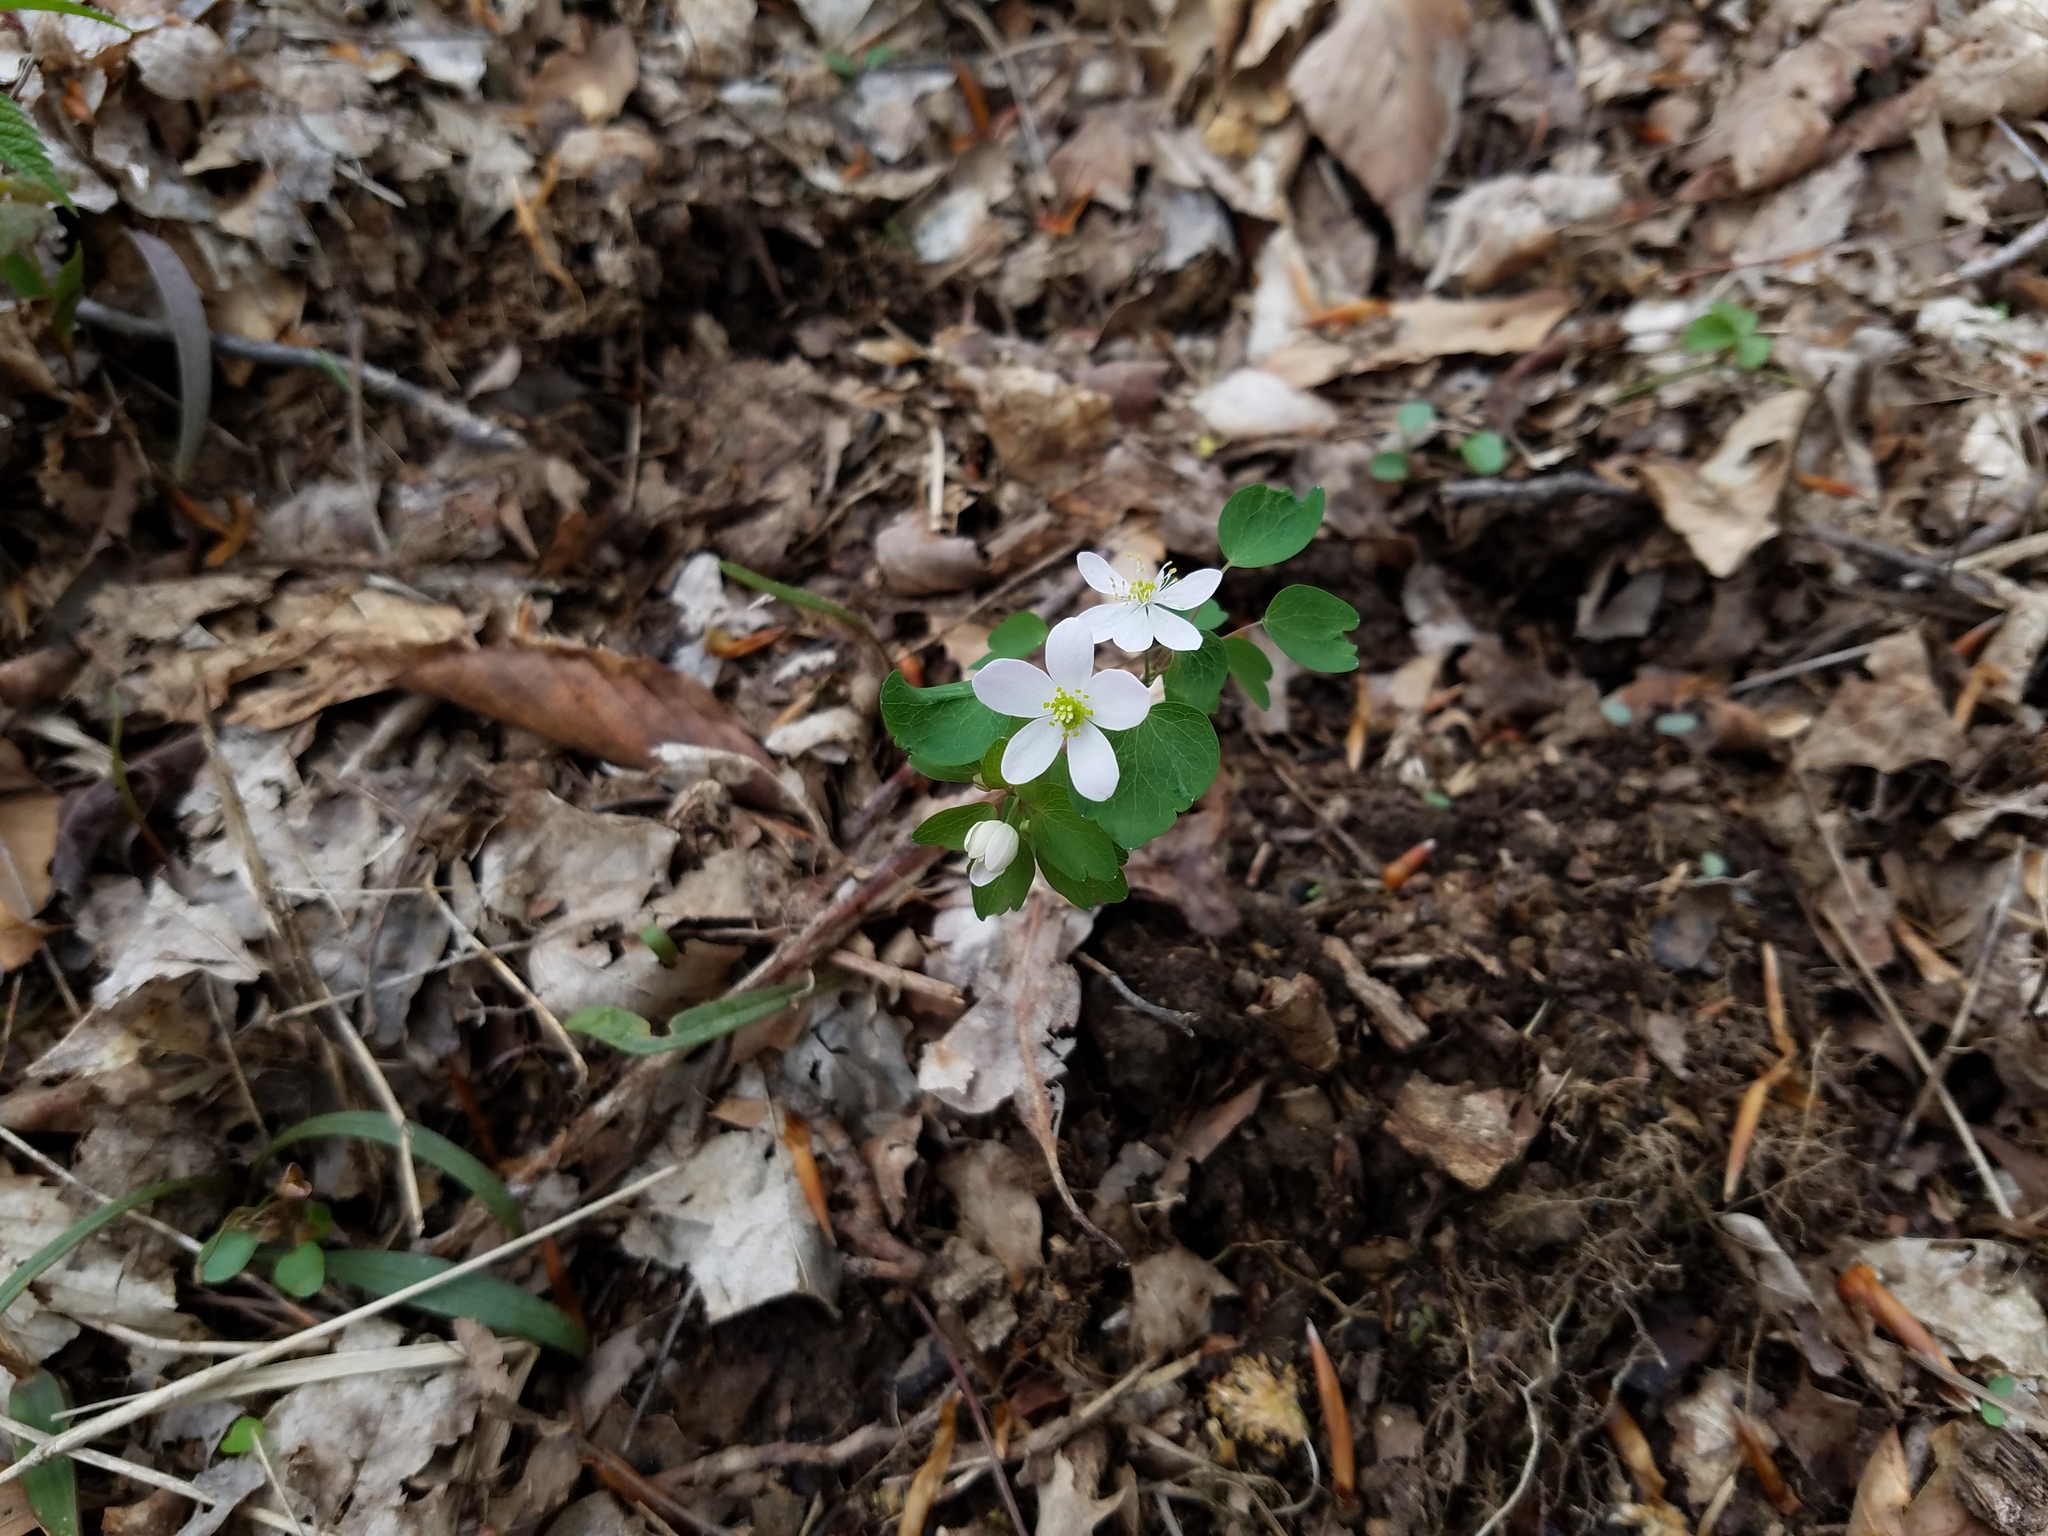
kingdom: Plantae
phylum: Tracheophyta
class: Magnoliopsida
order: Ranunculales
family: Ranunculaceae
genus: Thalictrum
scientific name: Thalictrum thalictroides
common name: Rue-anemone
